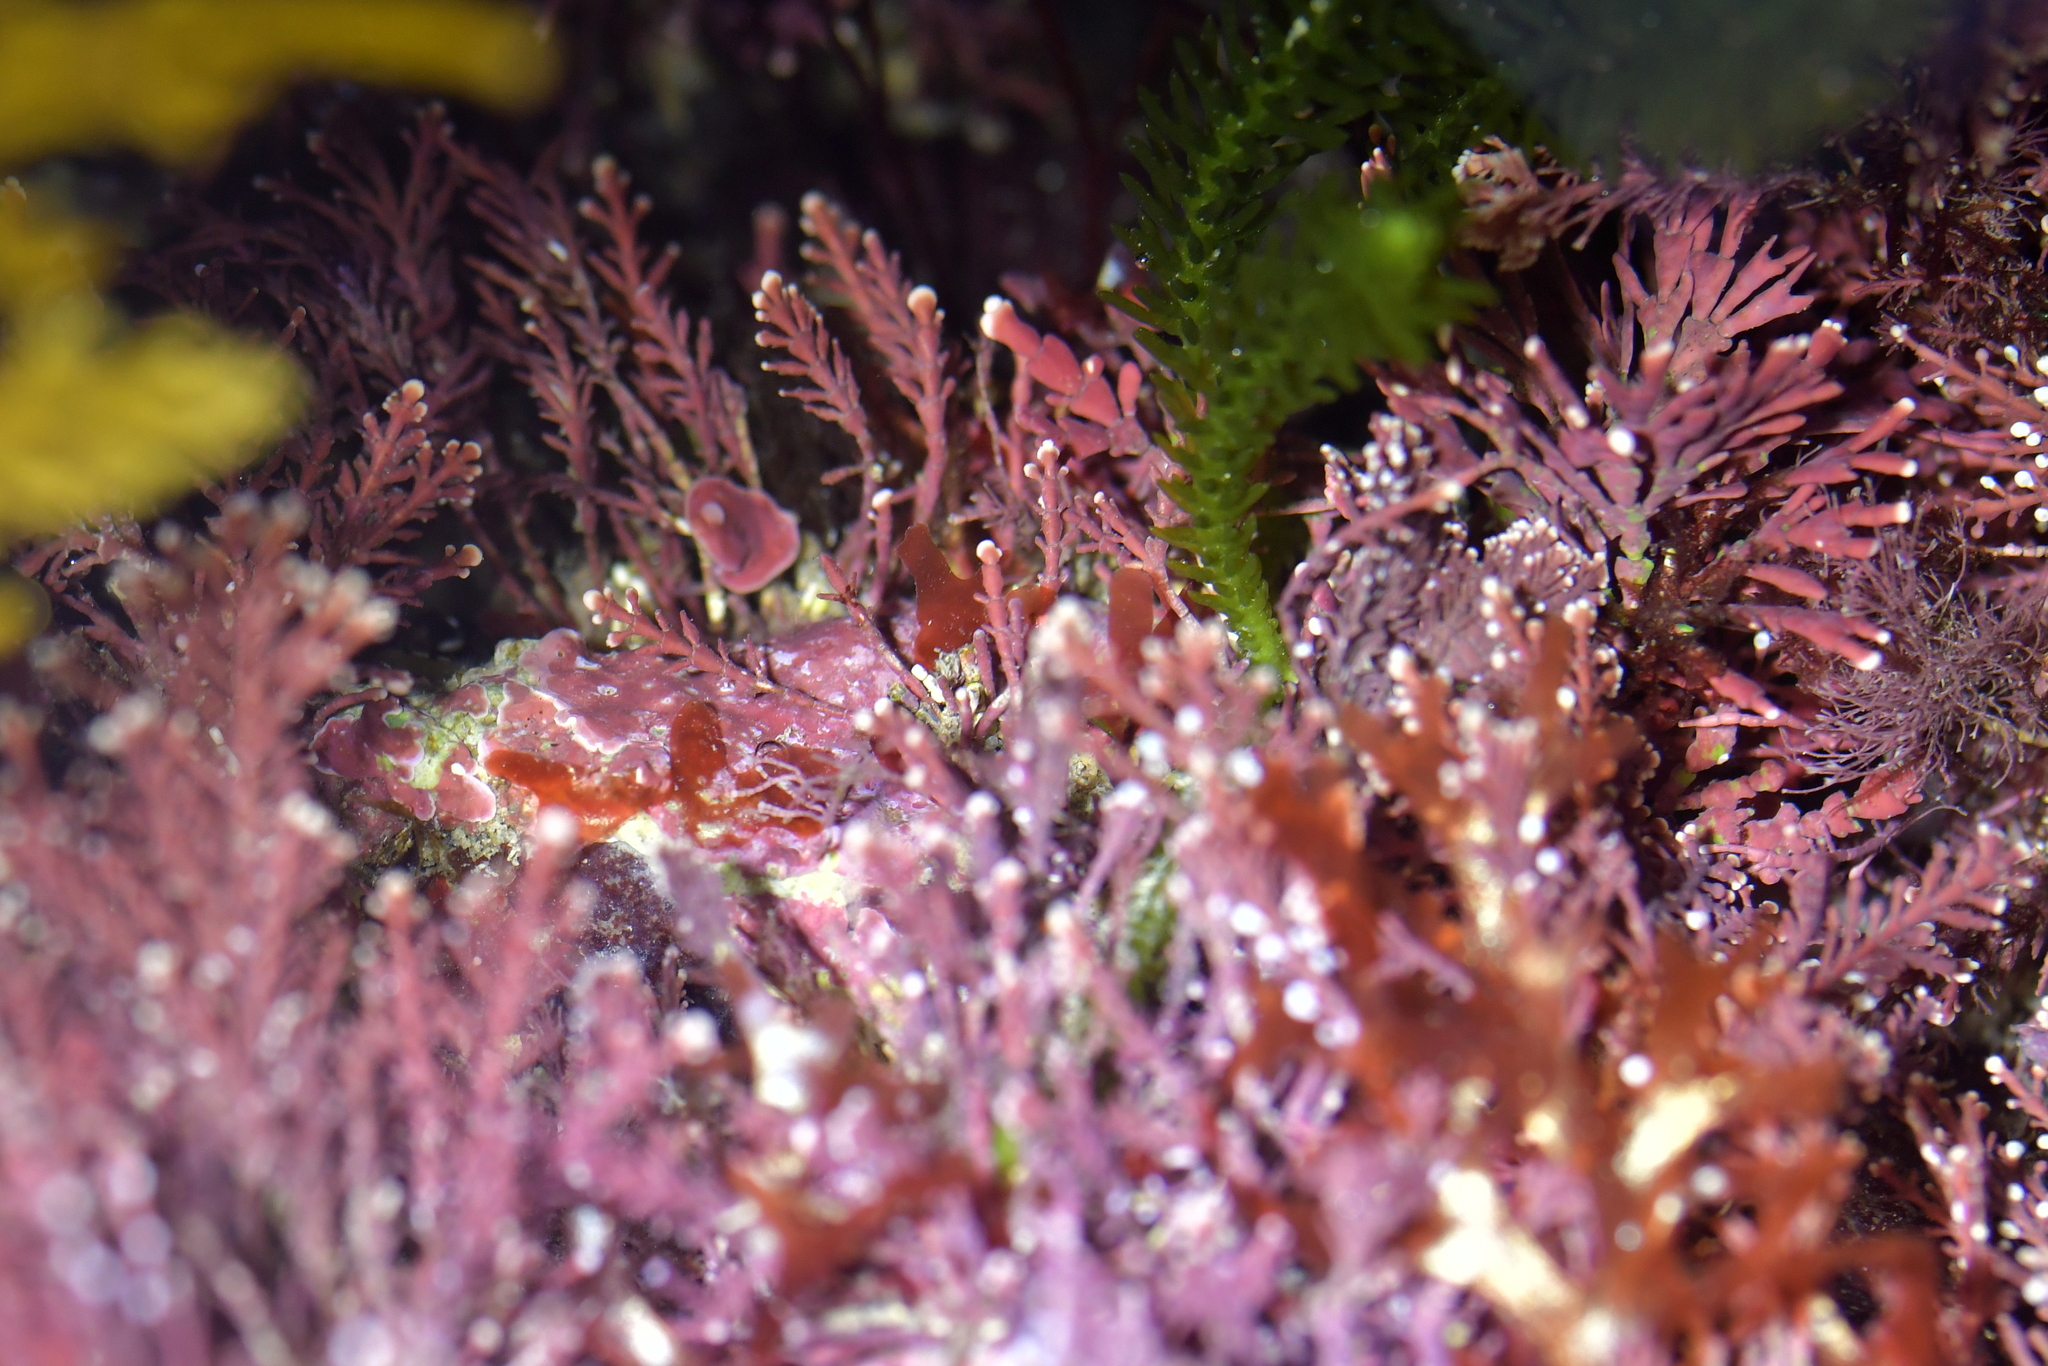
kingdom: Plantae
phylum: Rhodophyta
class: Florideophyceae
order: Corallinales
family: Corallinaceae
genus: Corallina
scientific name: Corallina officinalis
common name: Coral weed
